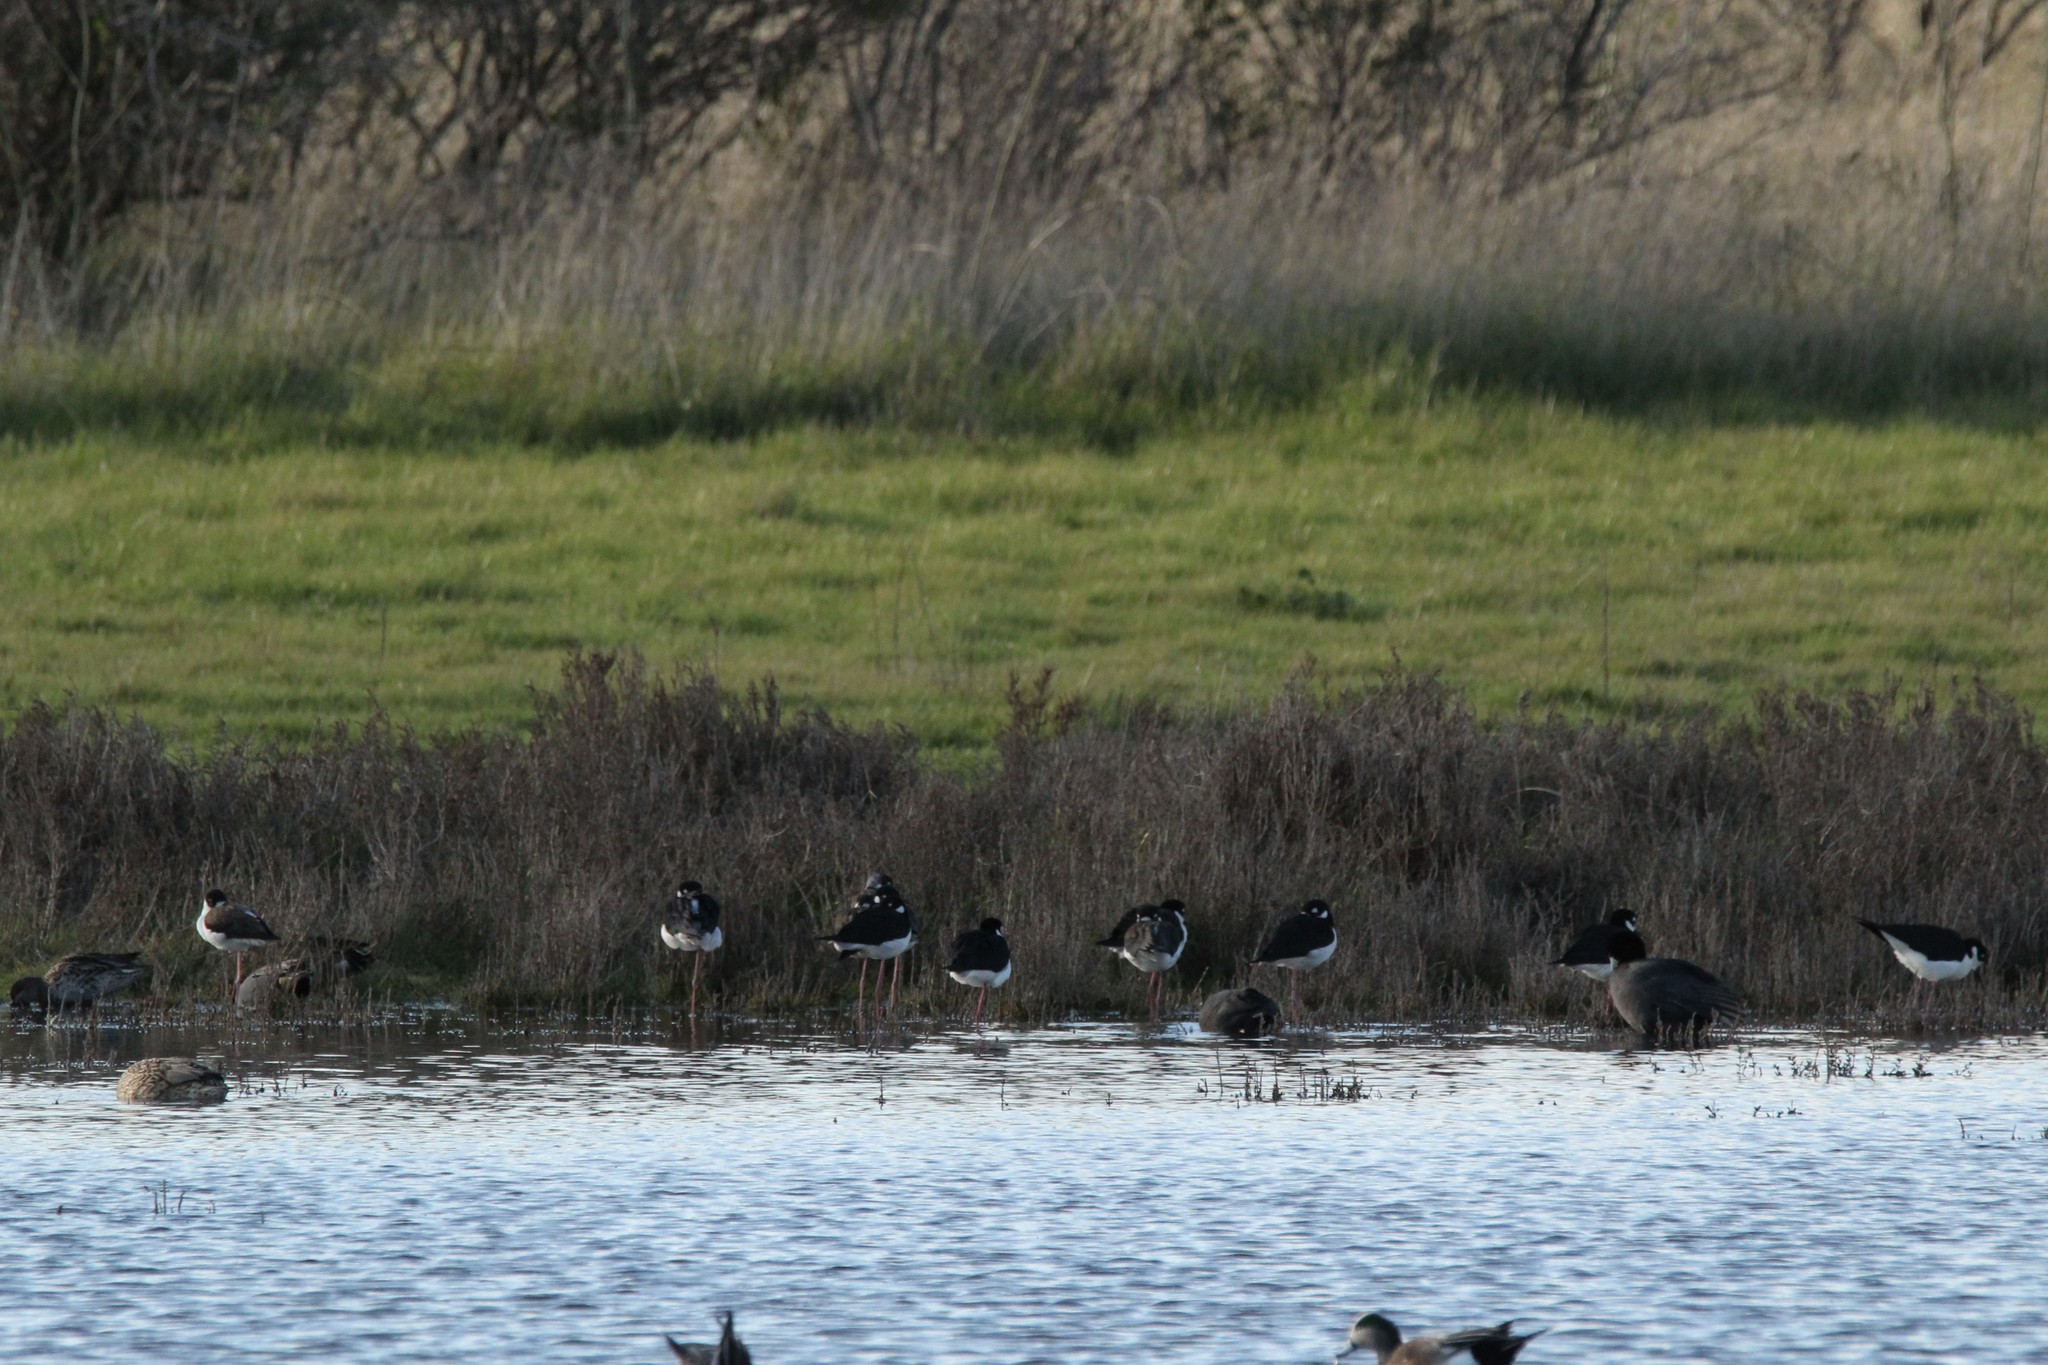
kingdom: Animalia
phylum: Chordata
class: Aves
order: Charadriiformes
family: Recurvirostridae
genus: Himantopus
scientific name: Himantopus mexicanus
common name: Black-necked stilt
